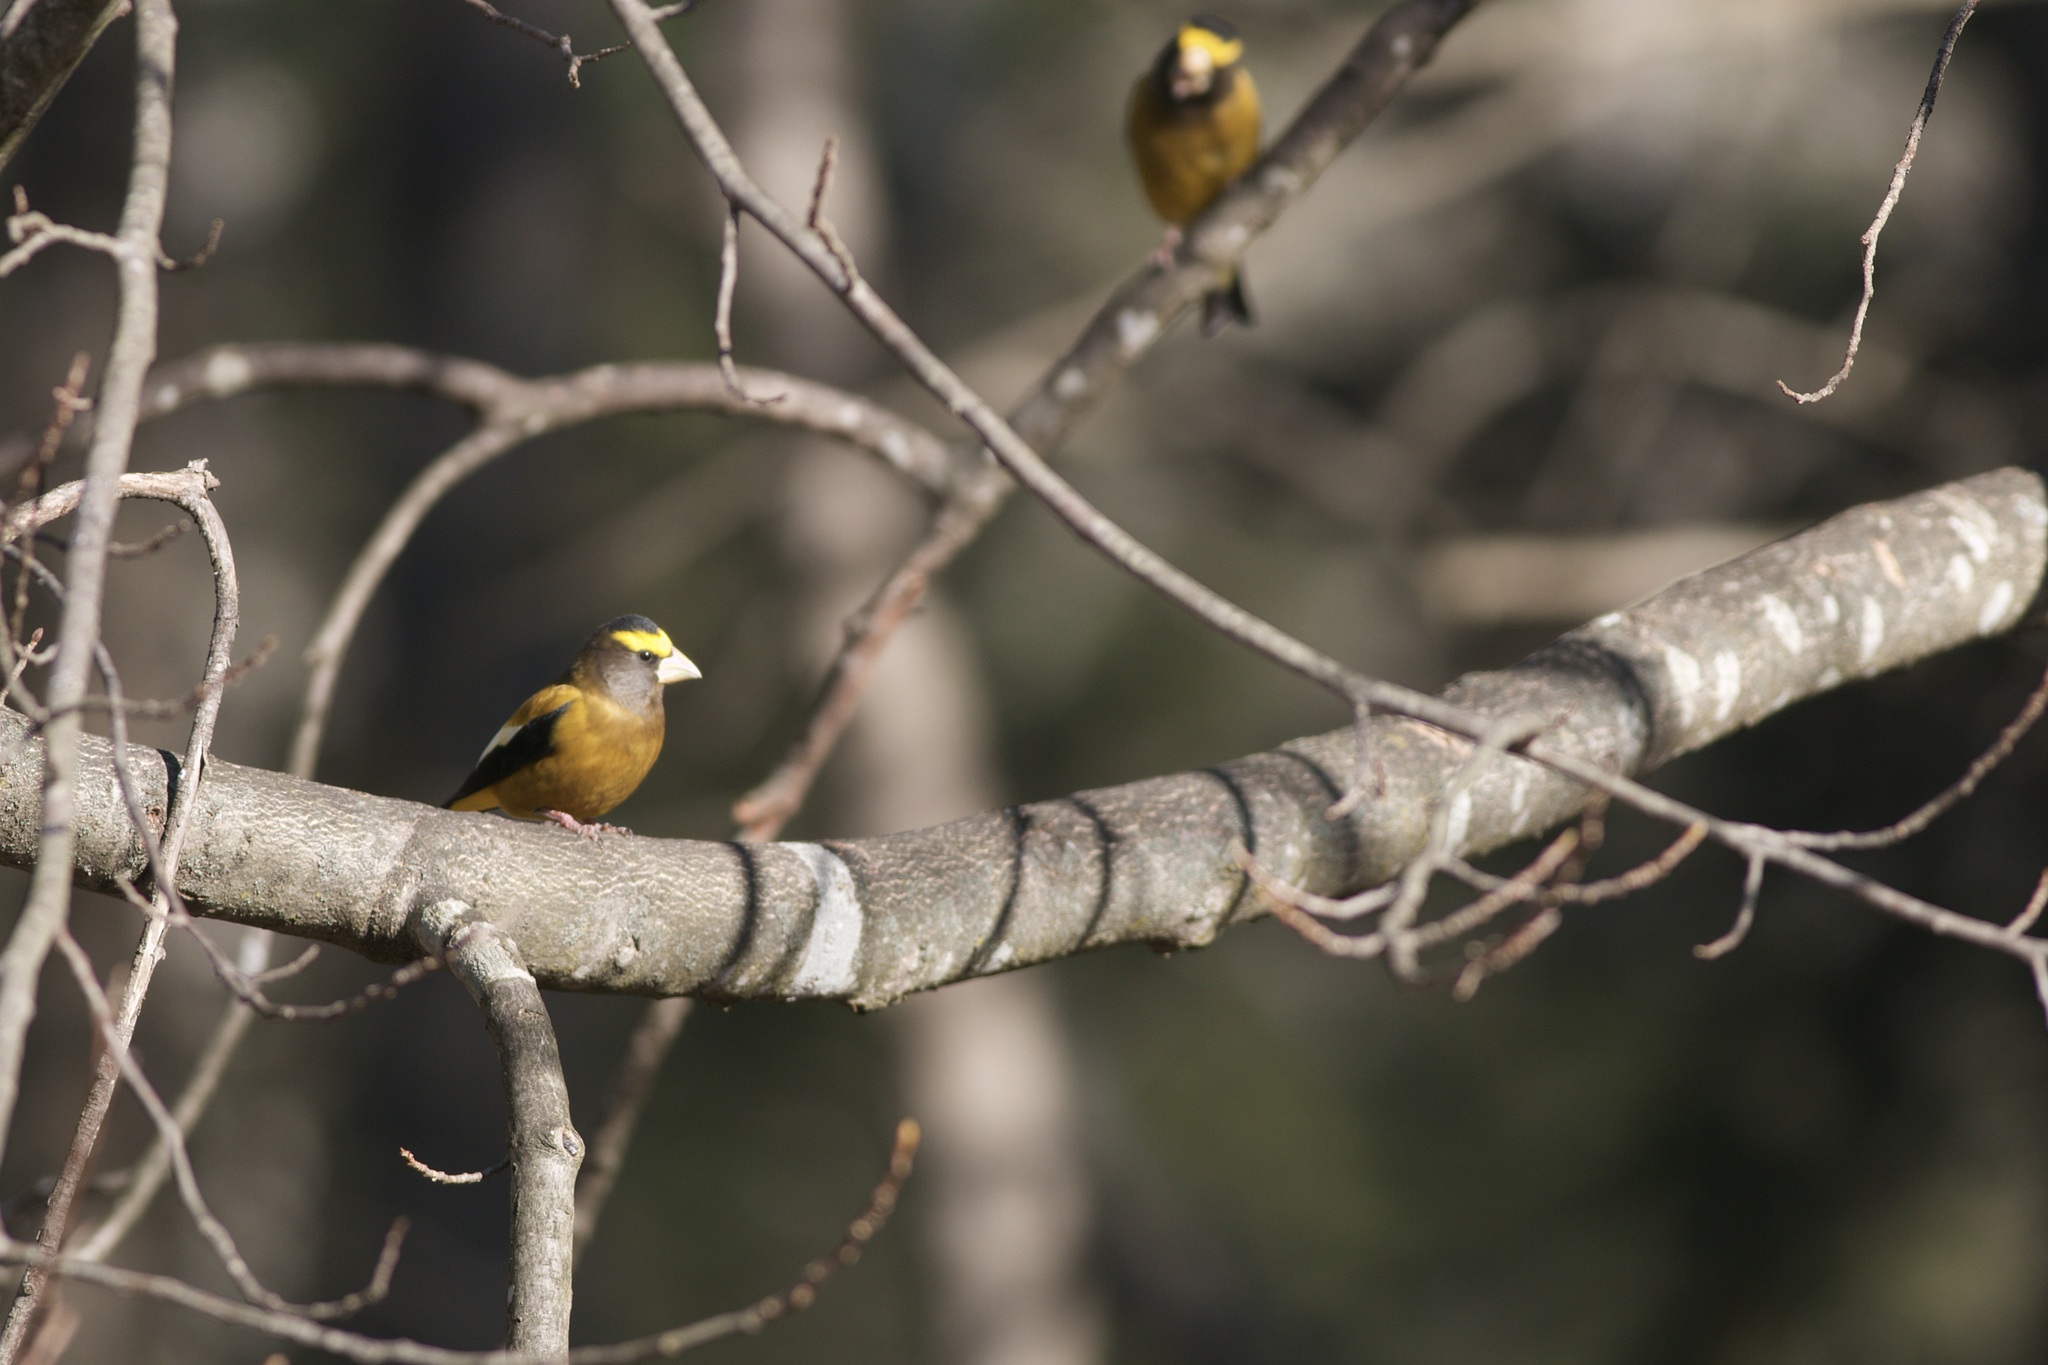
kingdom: Animalia
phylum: Chordata
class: Aves
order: Passeriformes
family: Fringillidae
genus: Hesperiphona
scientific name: Hesperiphona vespertina
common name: Evening grosbeak
